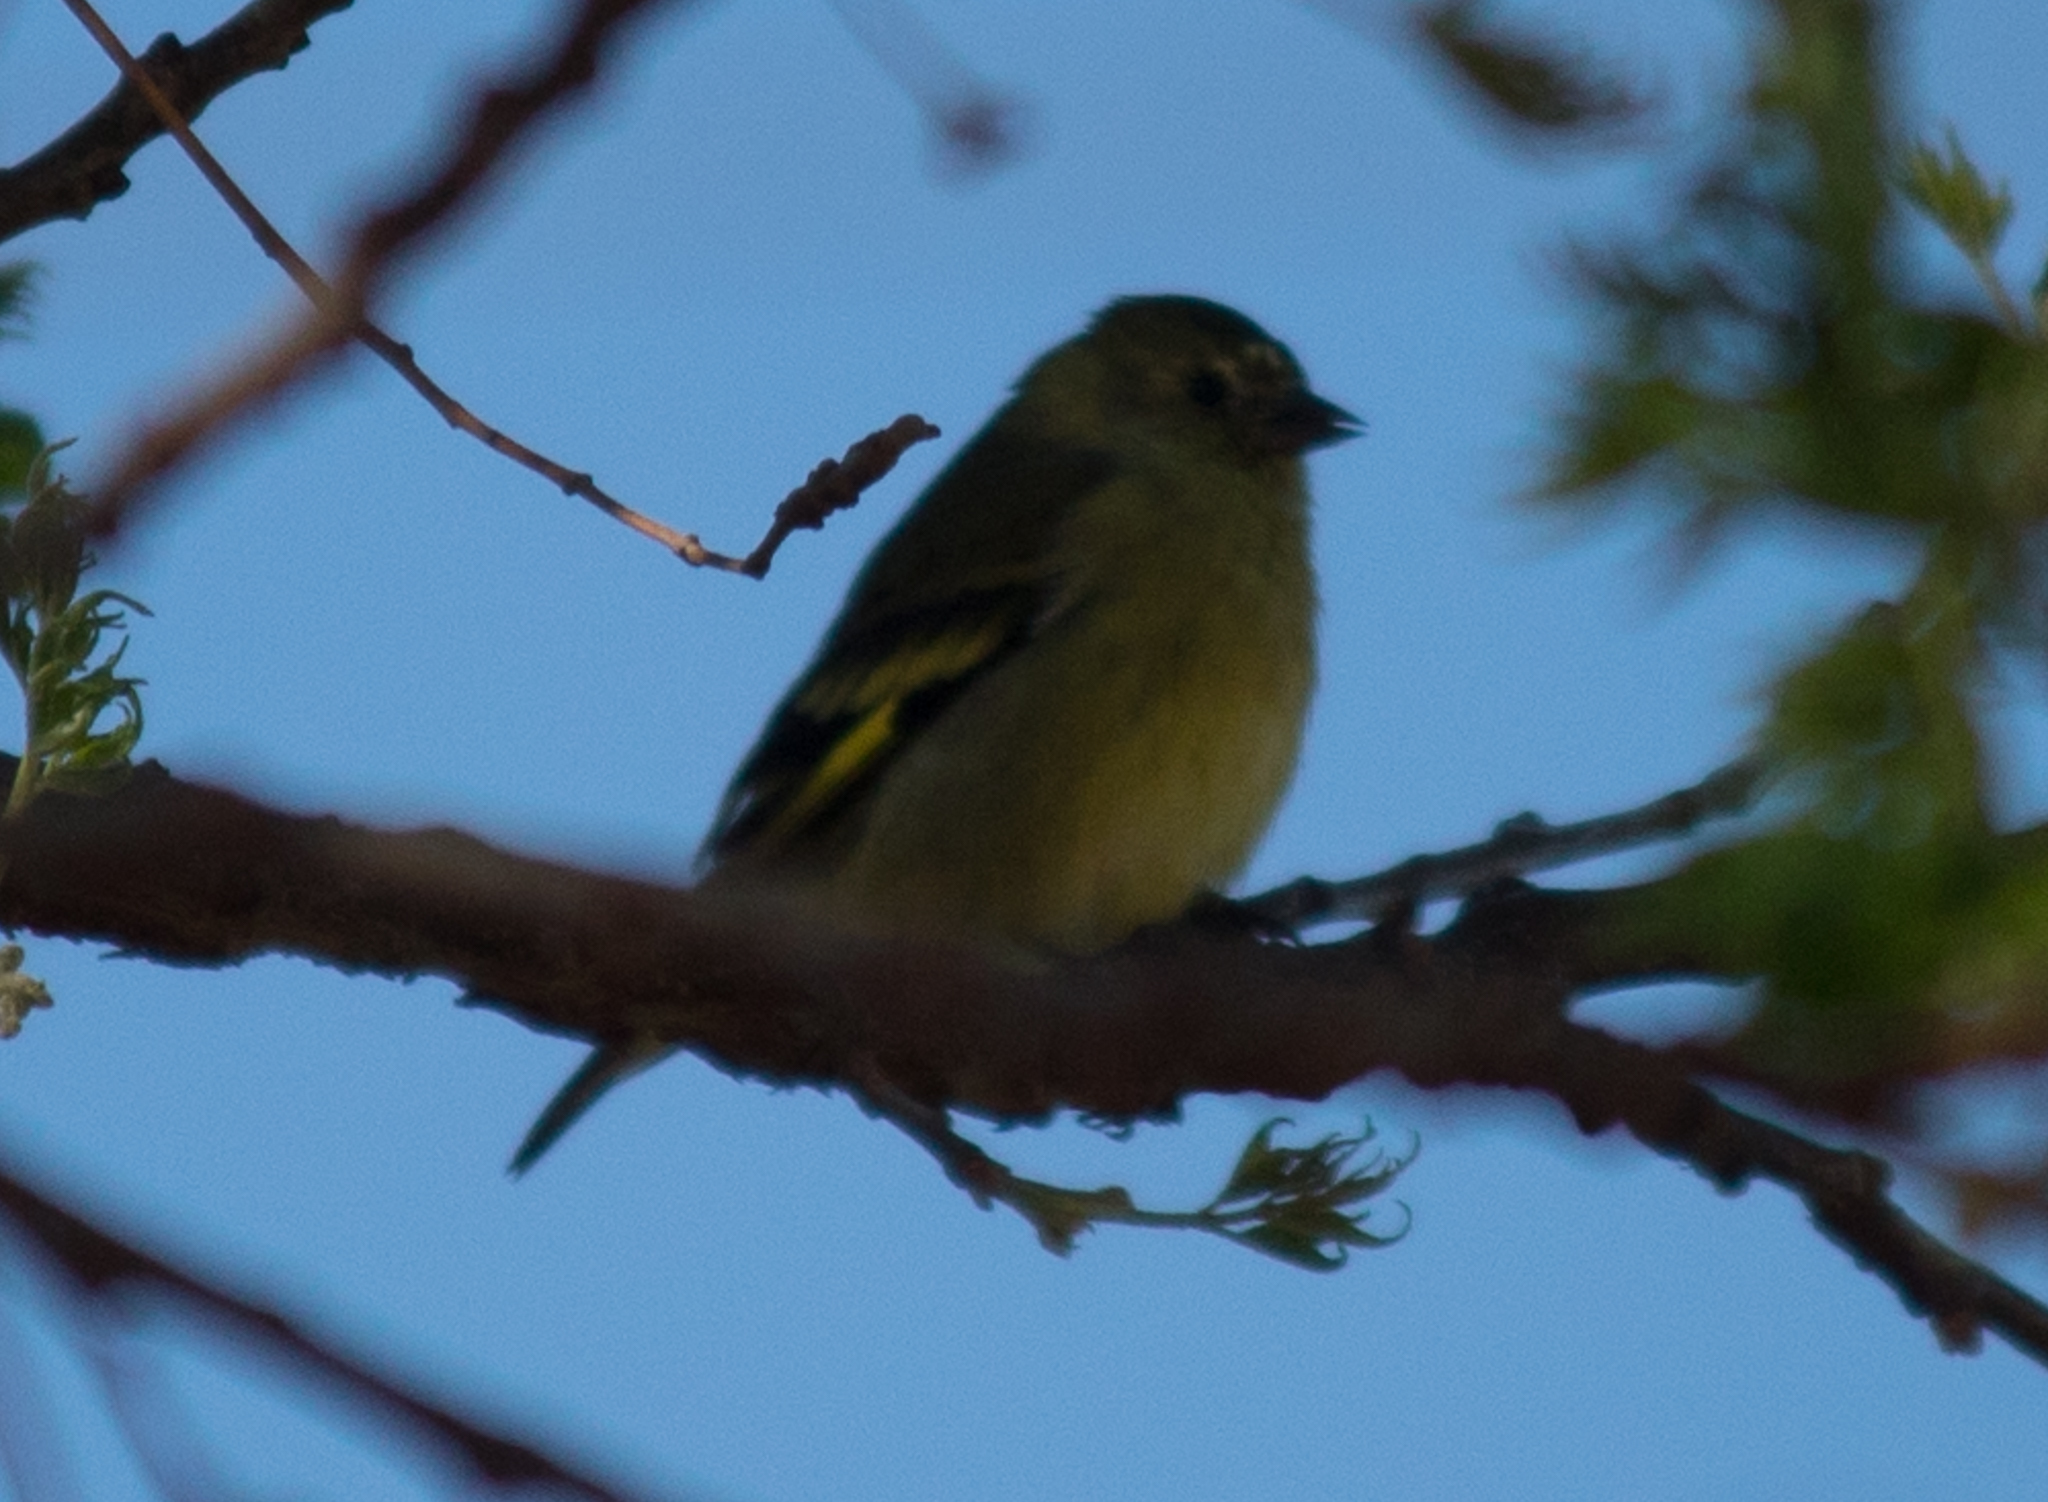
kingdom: Animalia
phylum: Chordata
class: Aves
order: Passeriformes
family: Fringillidae
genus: Spinus
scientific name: Spinus magellanicus
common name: Hooded siskin
